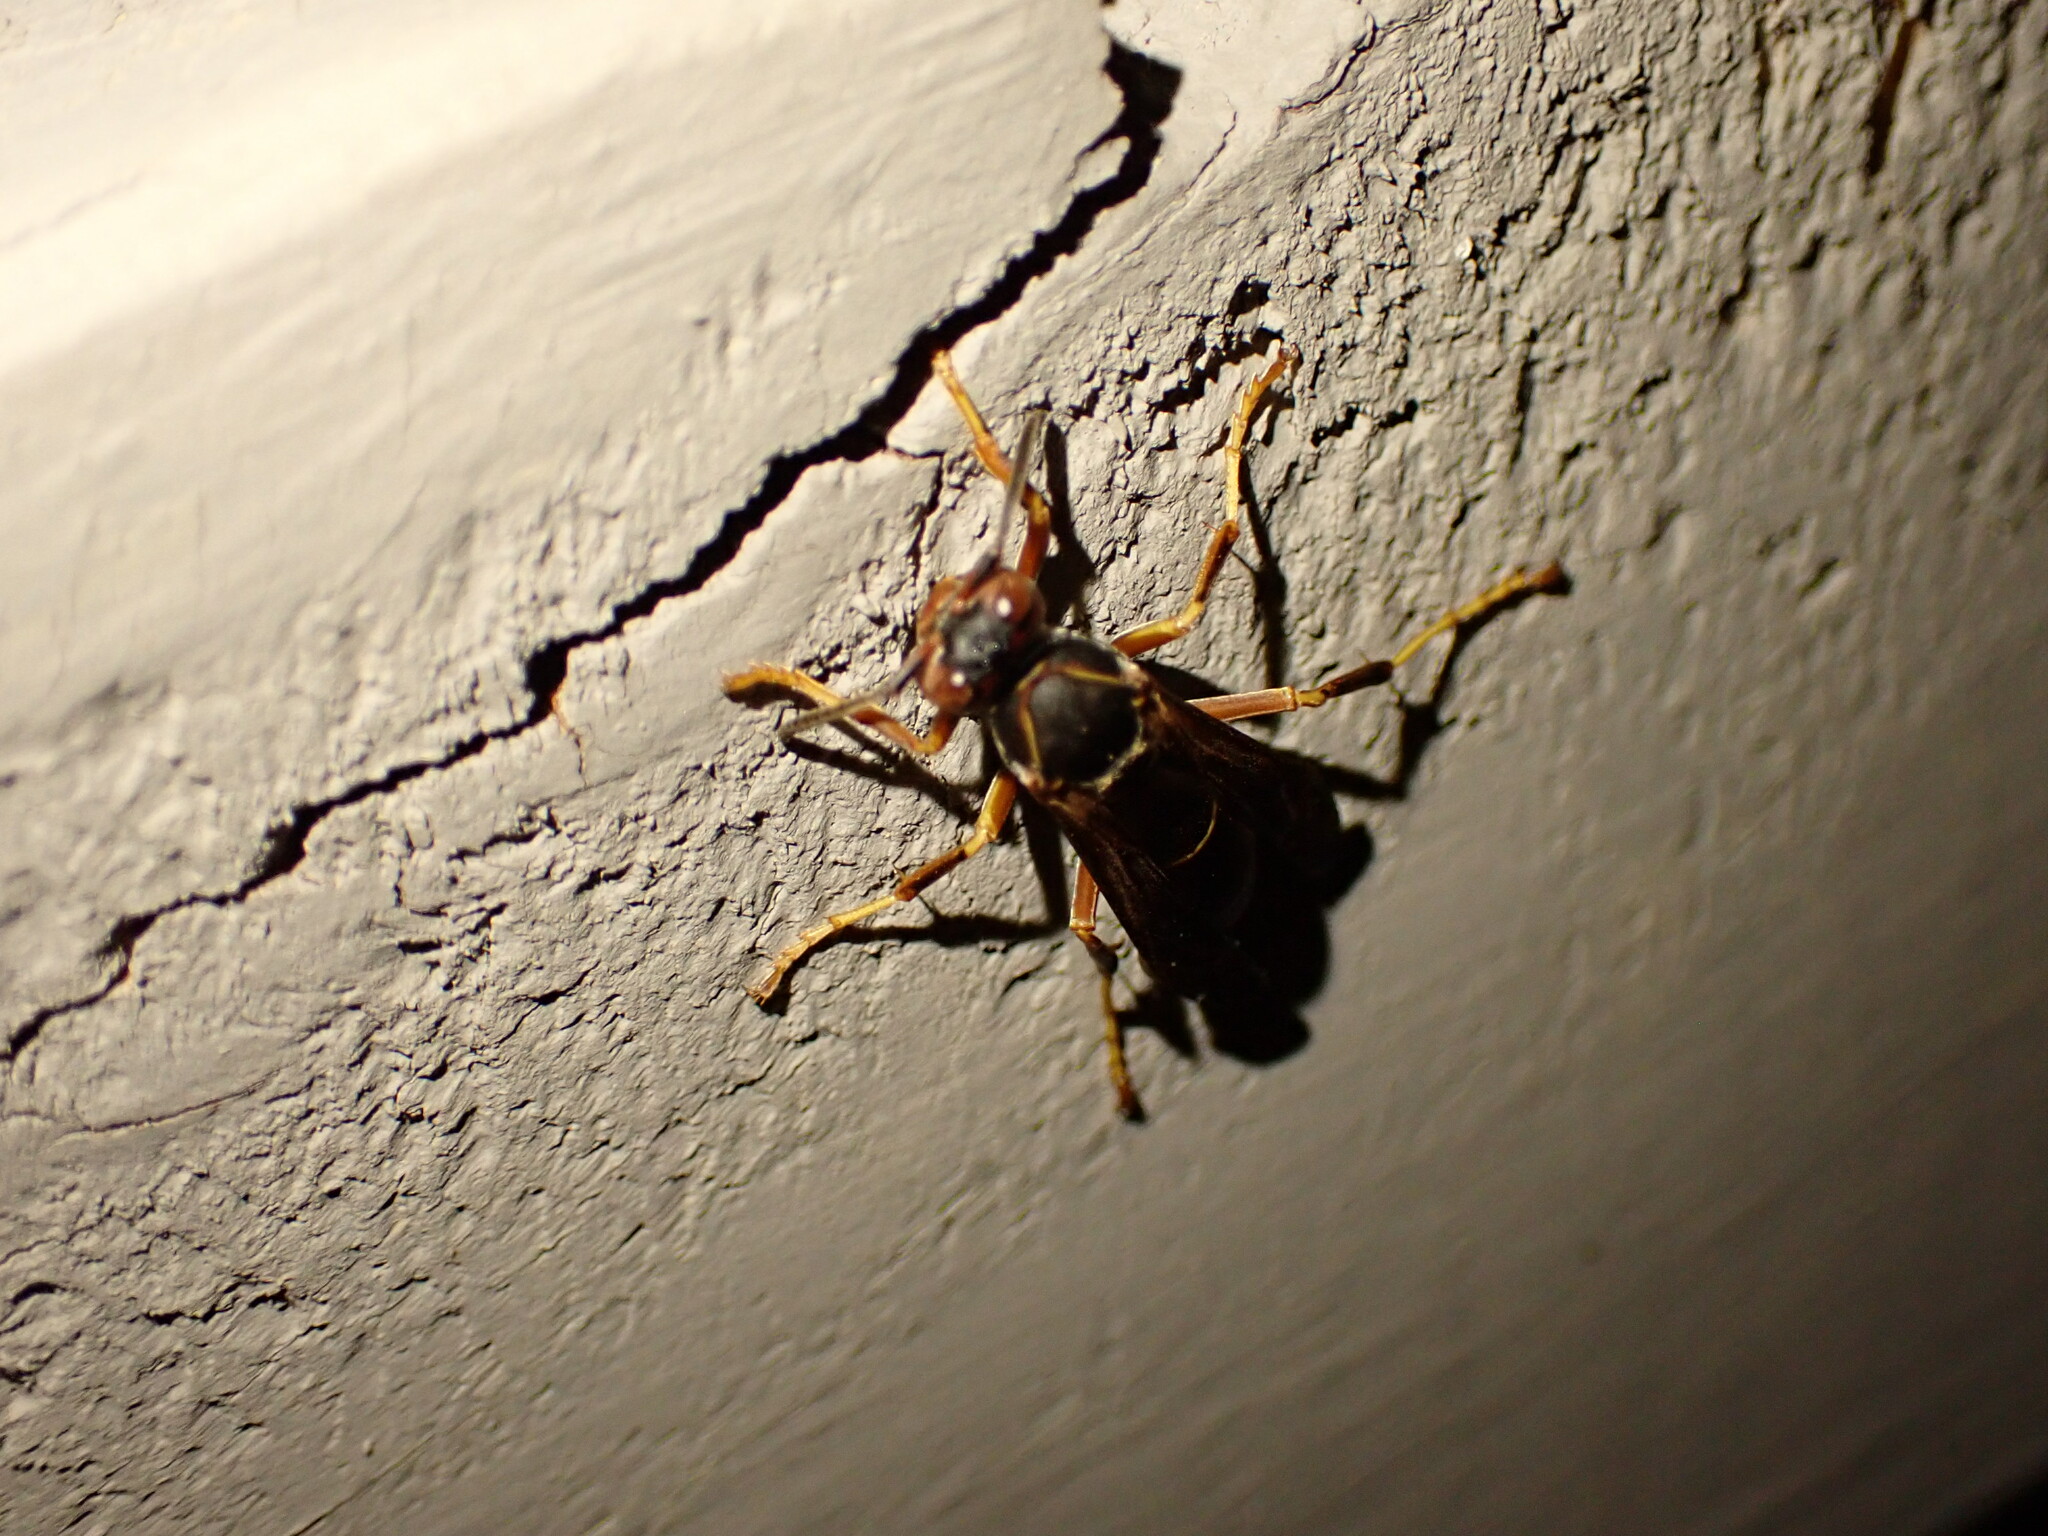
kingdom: Animalia
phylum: Arthropoda
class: Insecta
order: Hymenoptera
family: Vespidae
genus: Fuscopolistes
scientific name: Fuscopolistes
